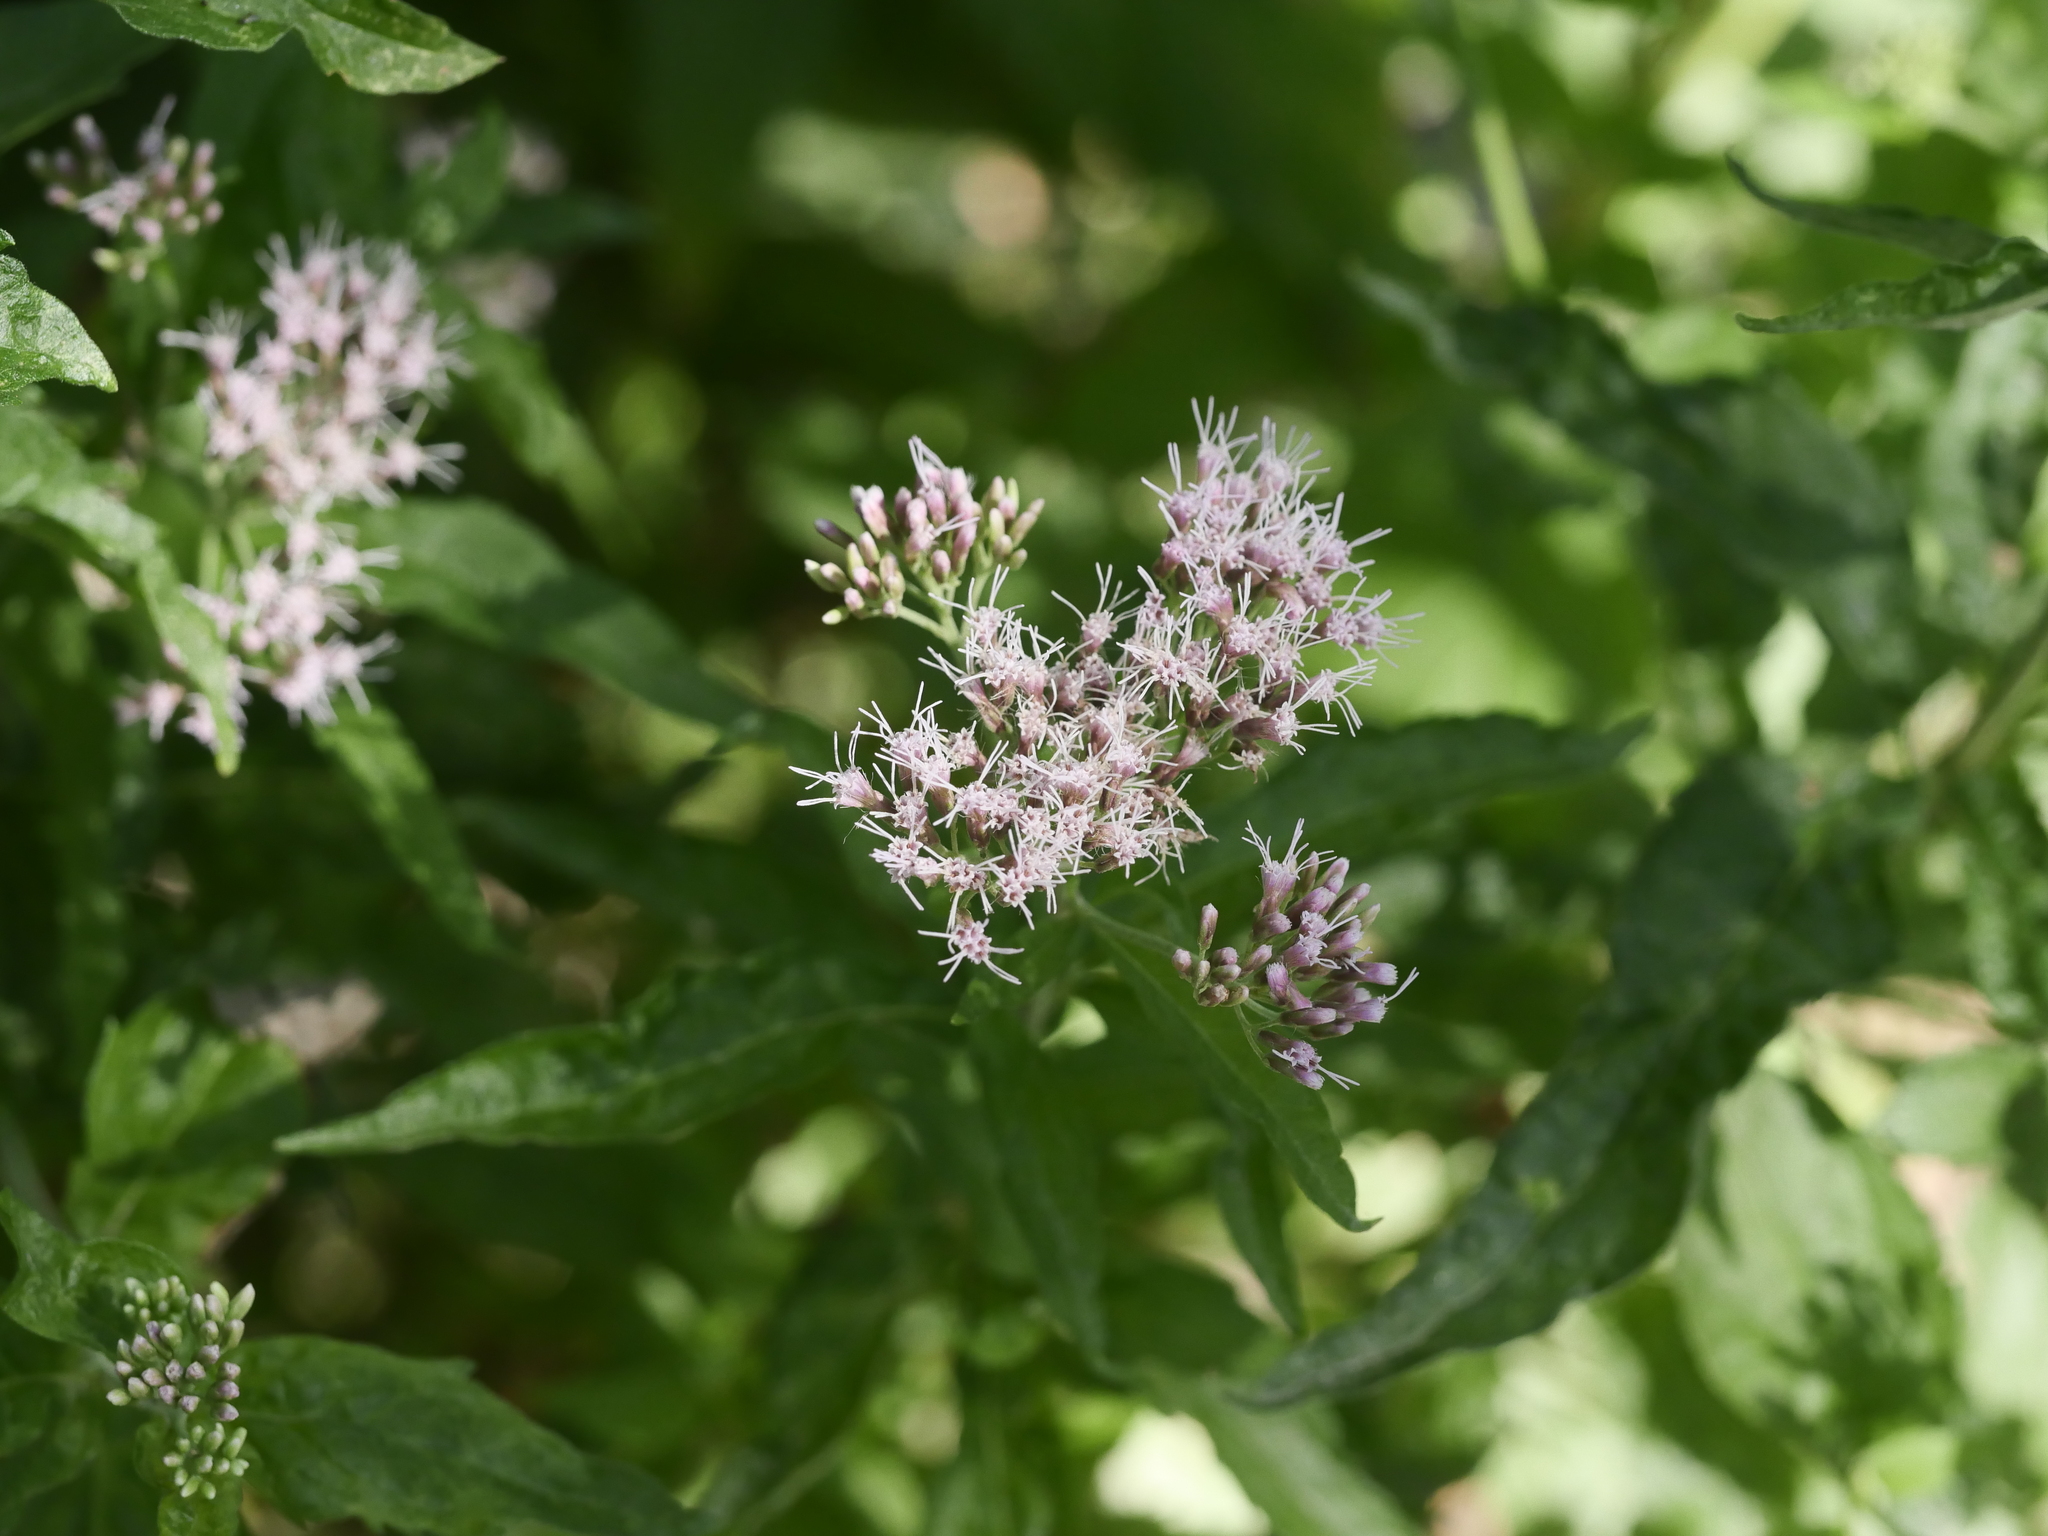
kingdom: Plantae
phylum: Tracheophyta
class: Magnoliopsida
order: Asterales
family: Asteraceae
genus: Eupatorium
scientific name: Eupatorium cannabinum
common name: Hemp-agrimony
